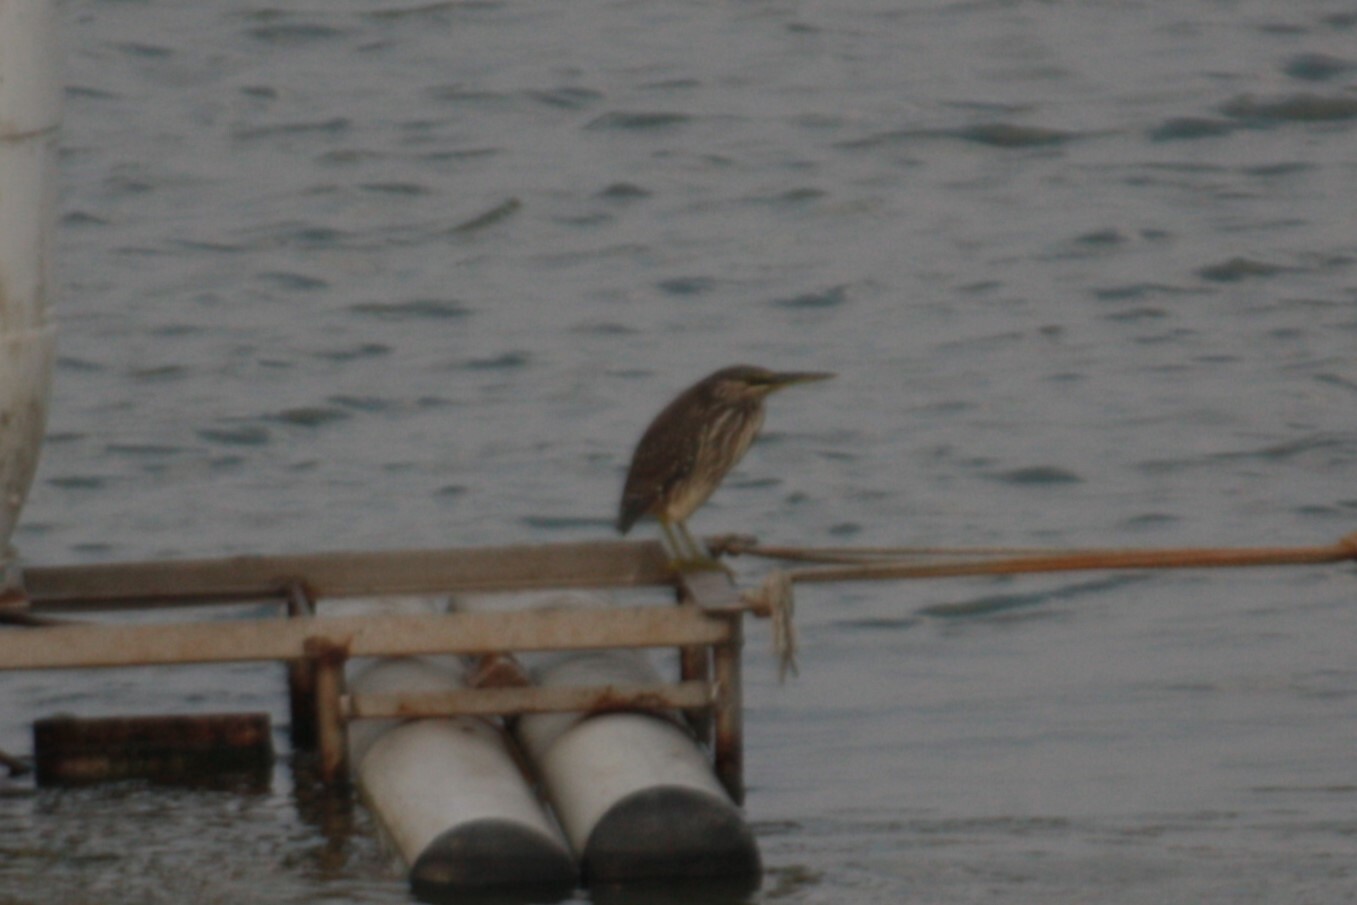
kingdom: Animalia
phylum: Chordata
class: Aves
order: Pelecaniformes
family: Ardeidae
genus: Butorides
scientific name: Butorides striata
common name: Striated heron
